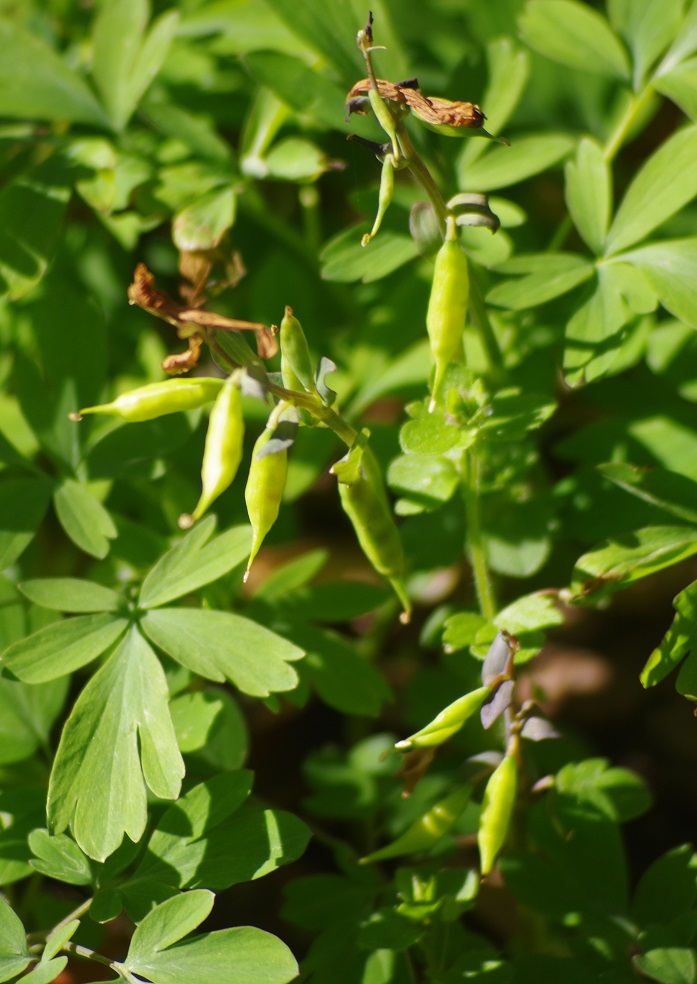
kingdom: Plantae
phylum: Tracheophyta
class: Magnoliopsida
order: Ranunculales
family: Papaveraceae
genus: Corydalis
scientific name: Corydalis cava
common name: Hollowroot
